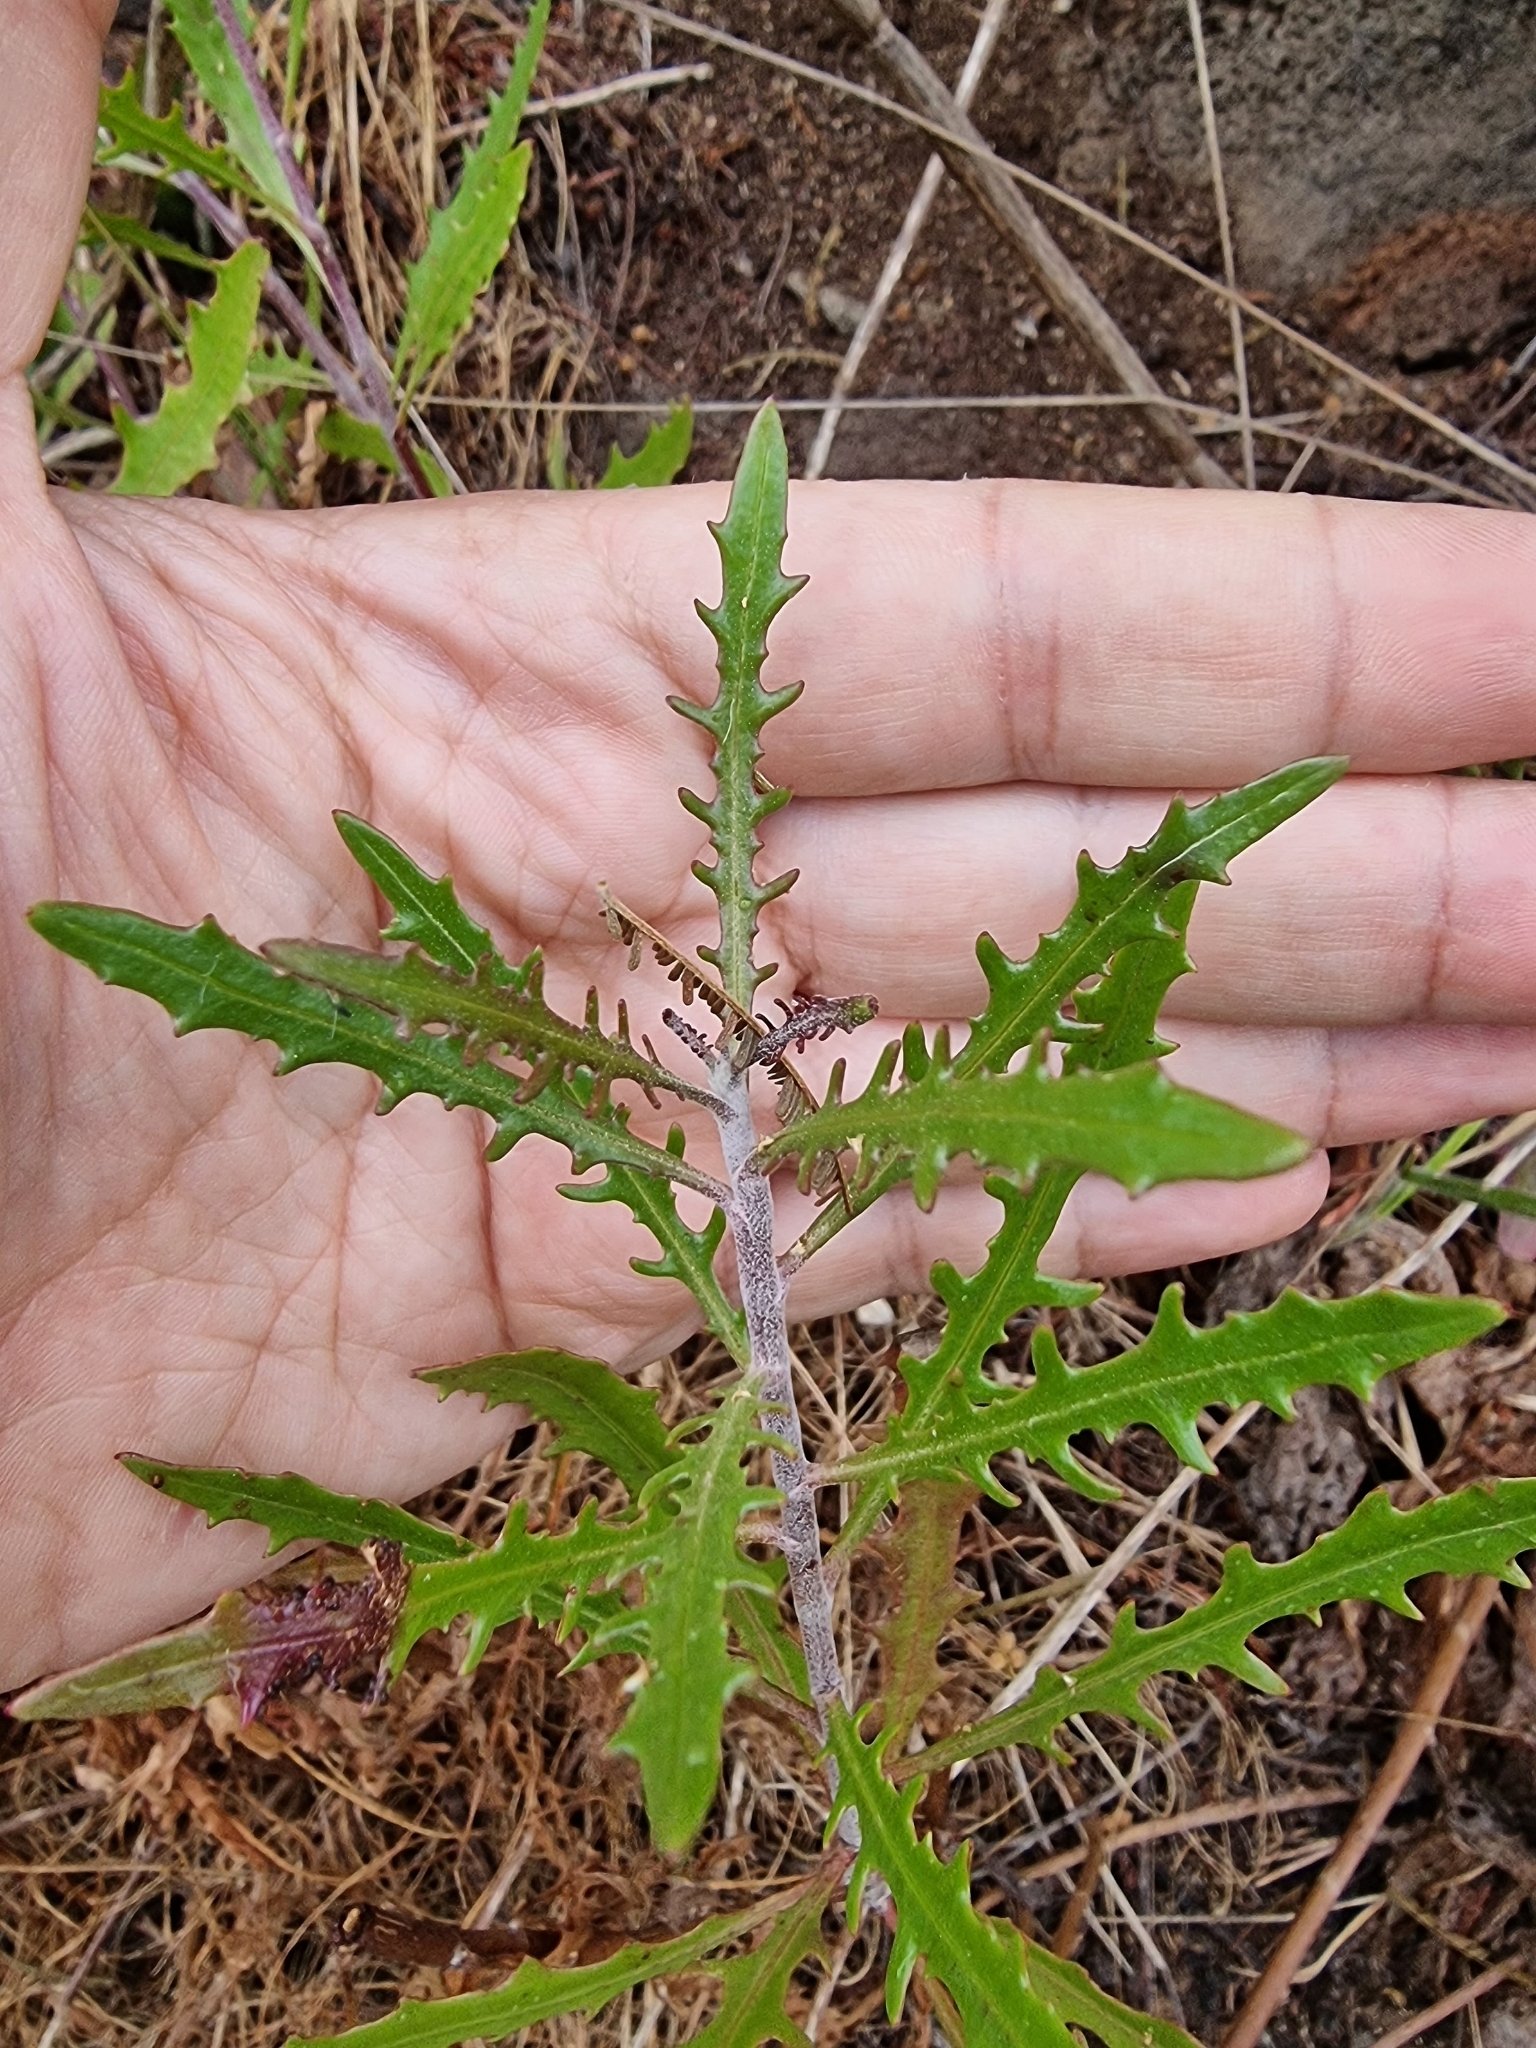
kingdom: Plantae
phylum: Tracheophyta
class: Magnoliopsida
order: Asterales
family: Asteraceae
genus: Tolpis
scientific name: Tolpis succulenta
